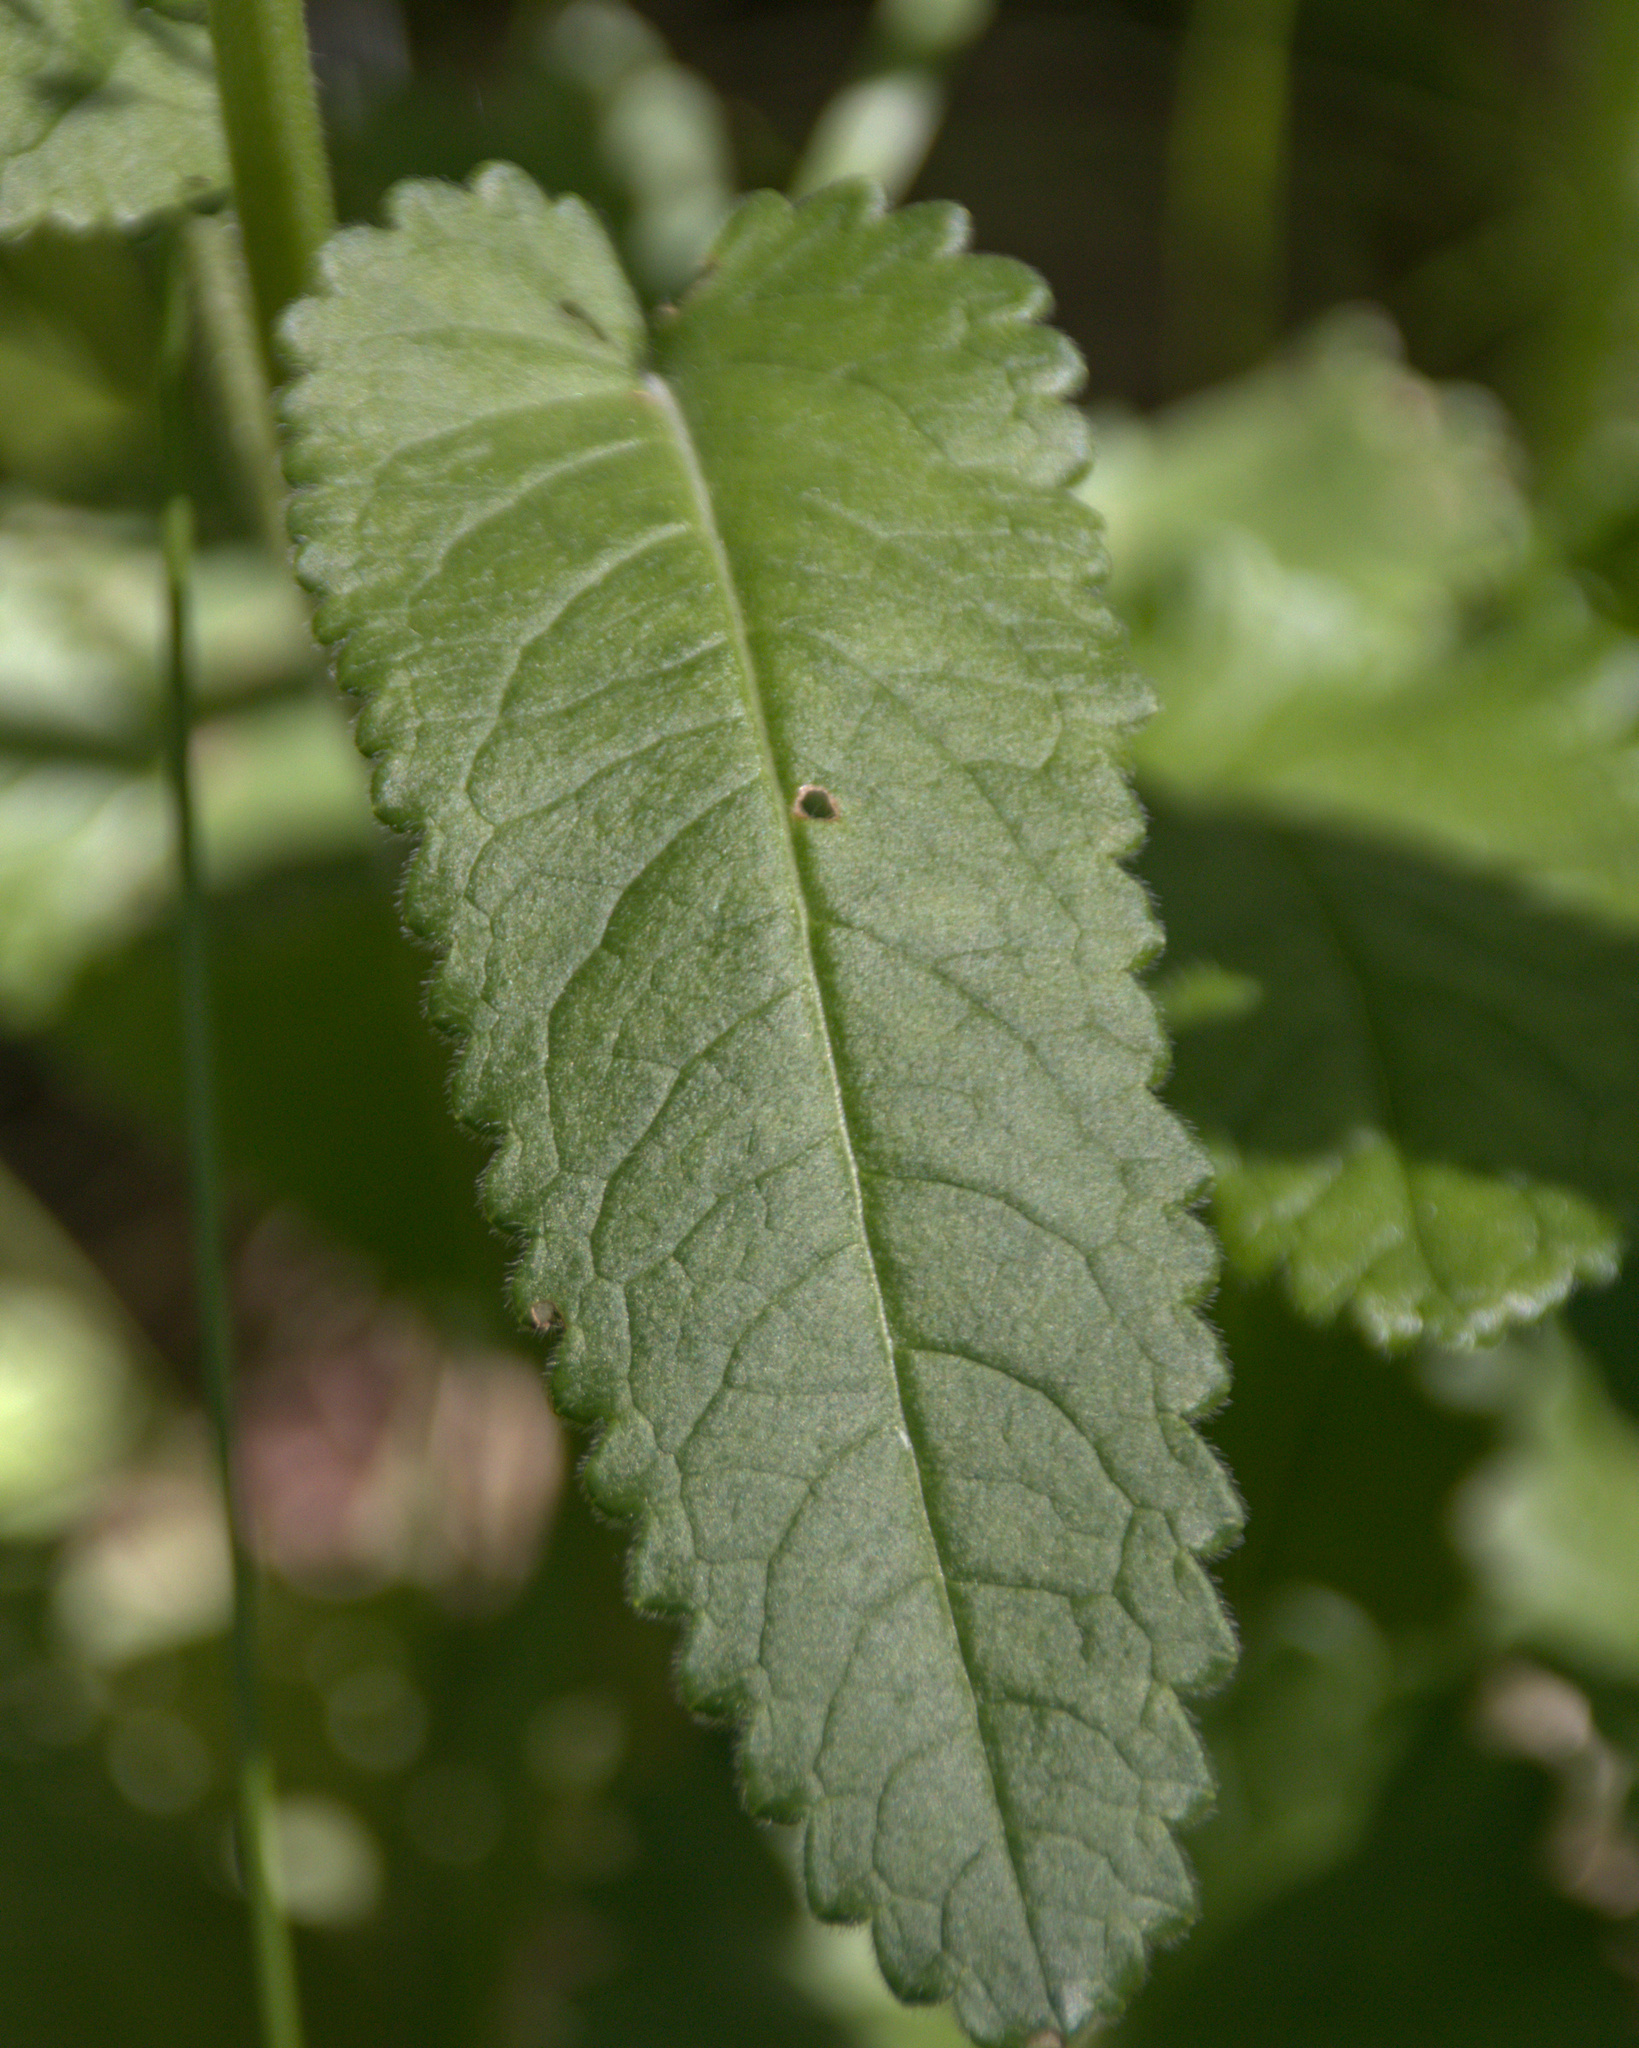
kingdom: Plantae
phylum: Tracheophyta
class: Magnoliopsida
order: Lamiales
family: Lamiaceae
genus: Betonica
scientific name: Betonica officinalis
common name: Bishop's-wort
